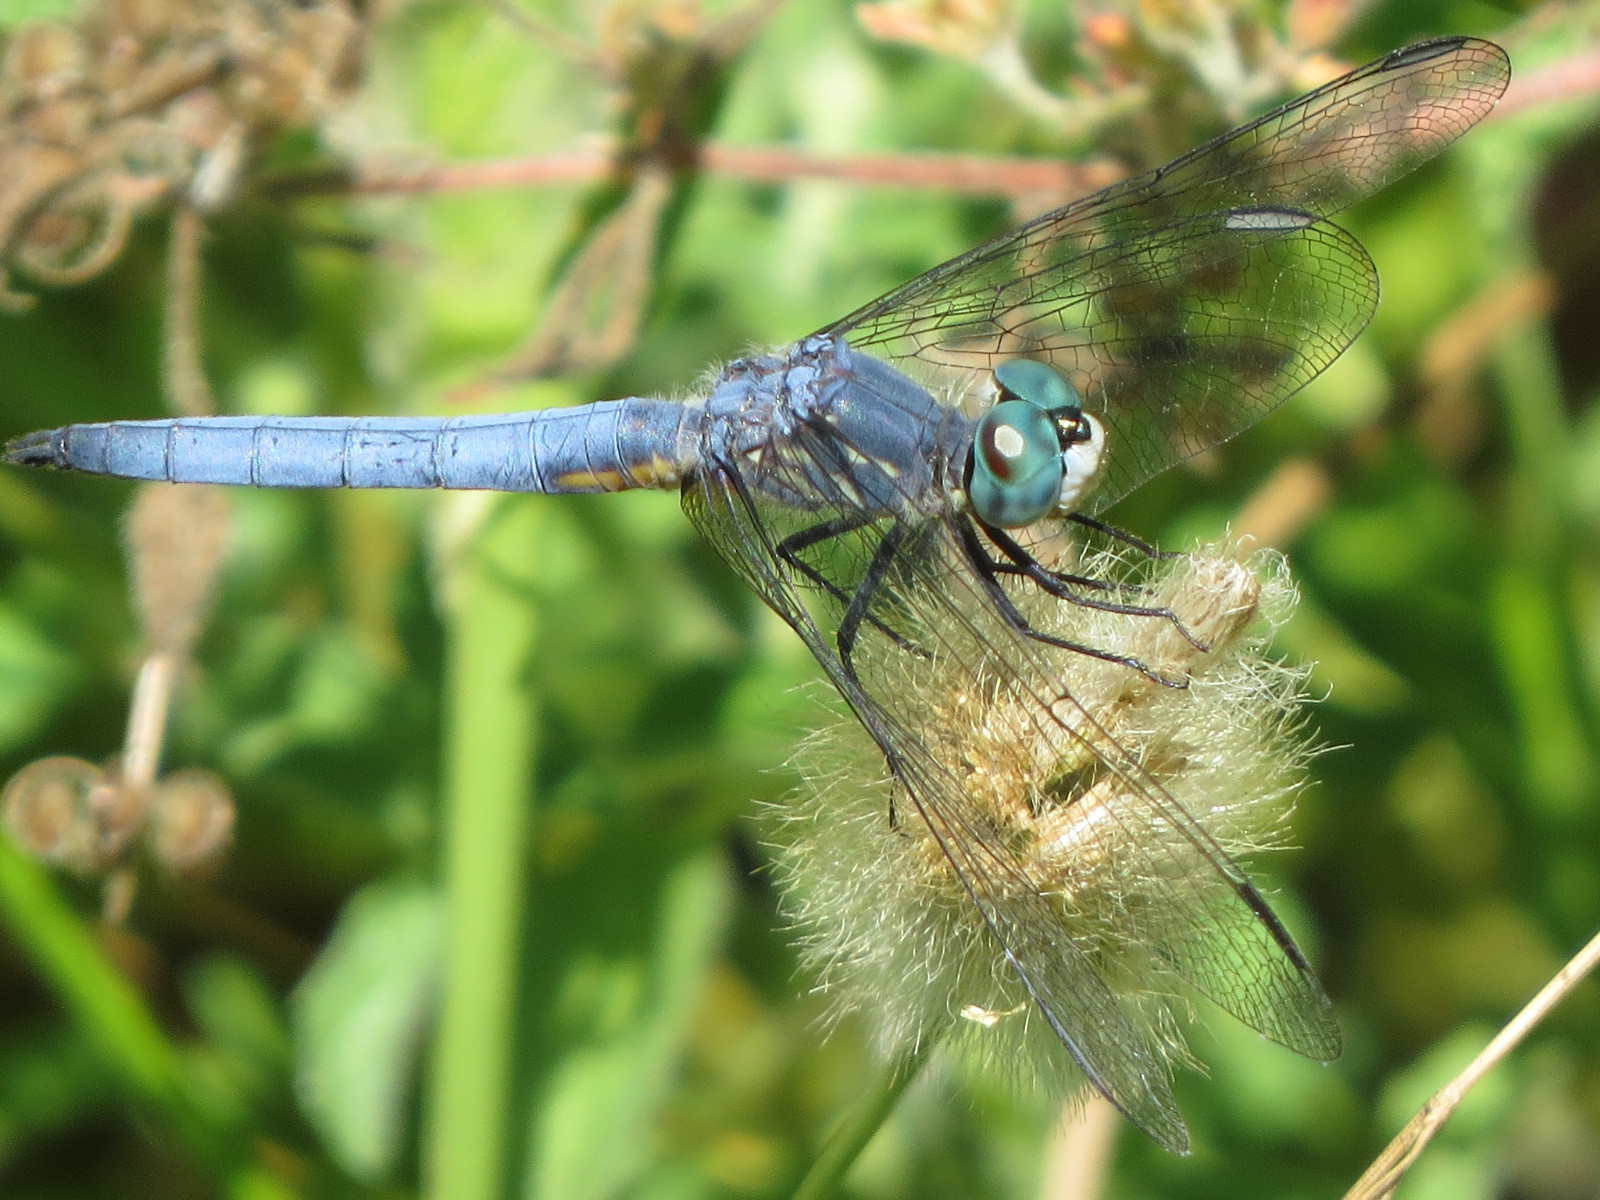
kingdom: Animalia
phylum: Arthropoda
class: Insecta
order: Odonata
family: Libellulidae
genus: Pachydiplax
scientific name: Pachydiplax longipennis
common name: Blue dasher
